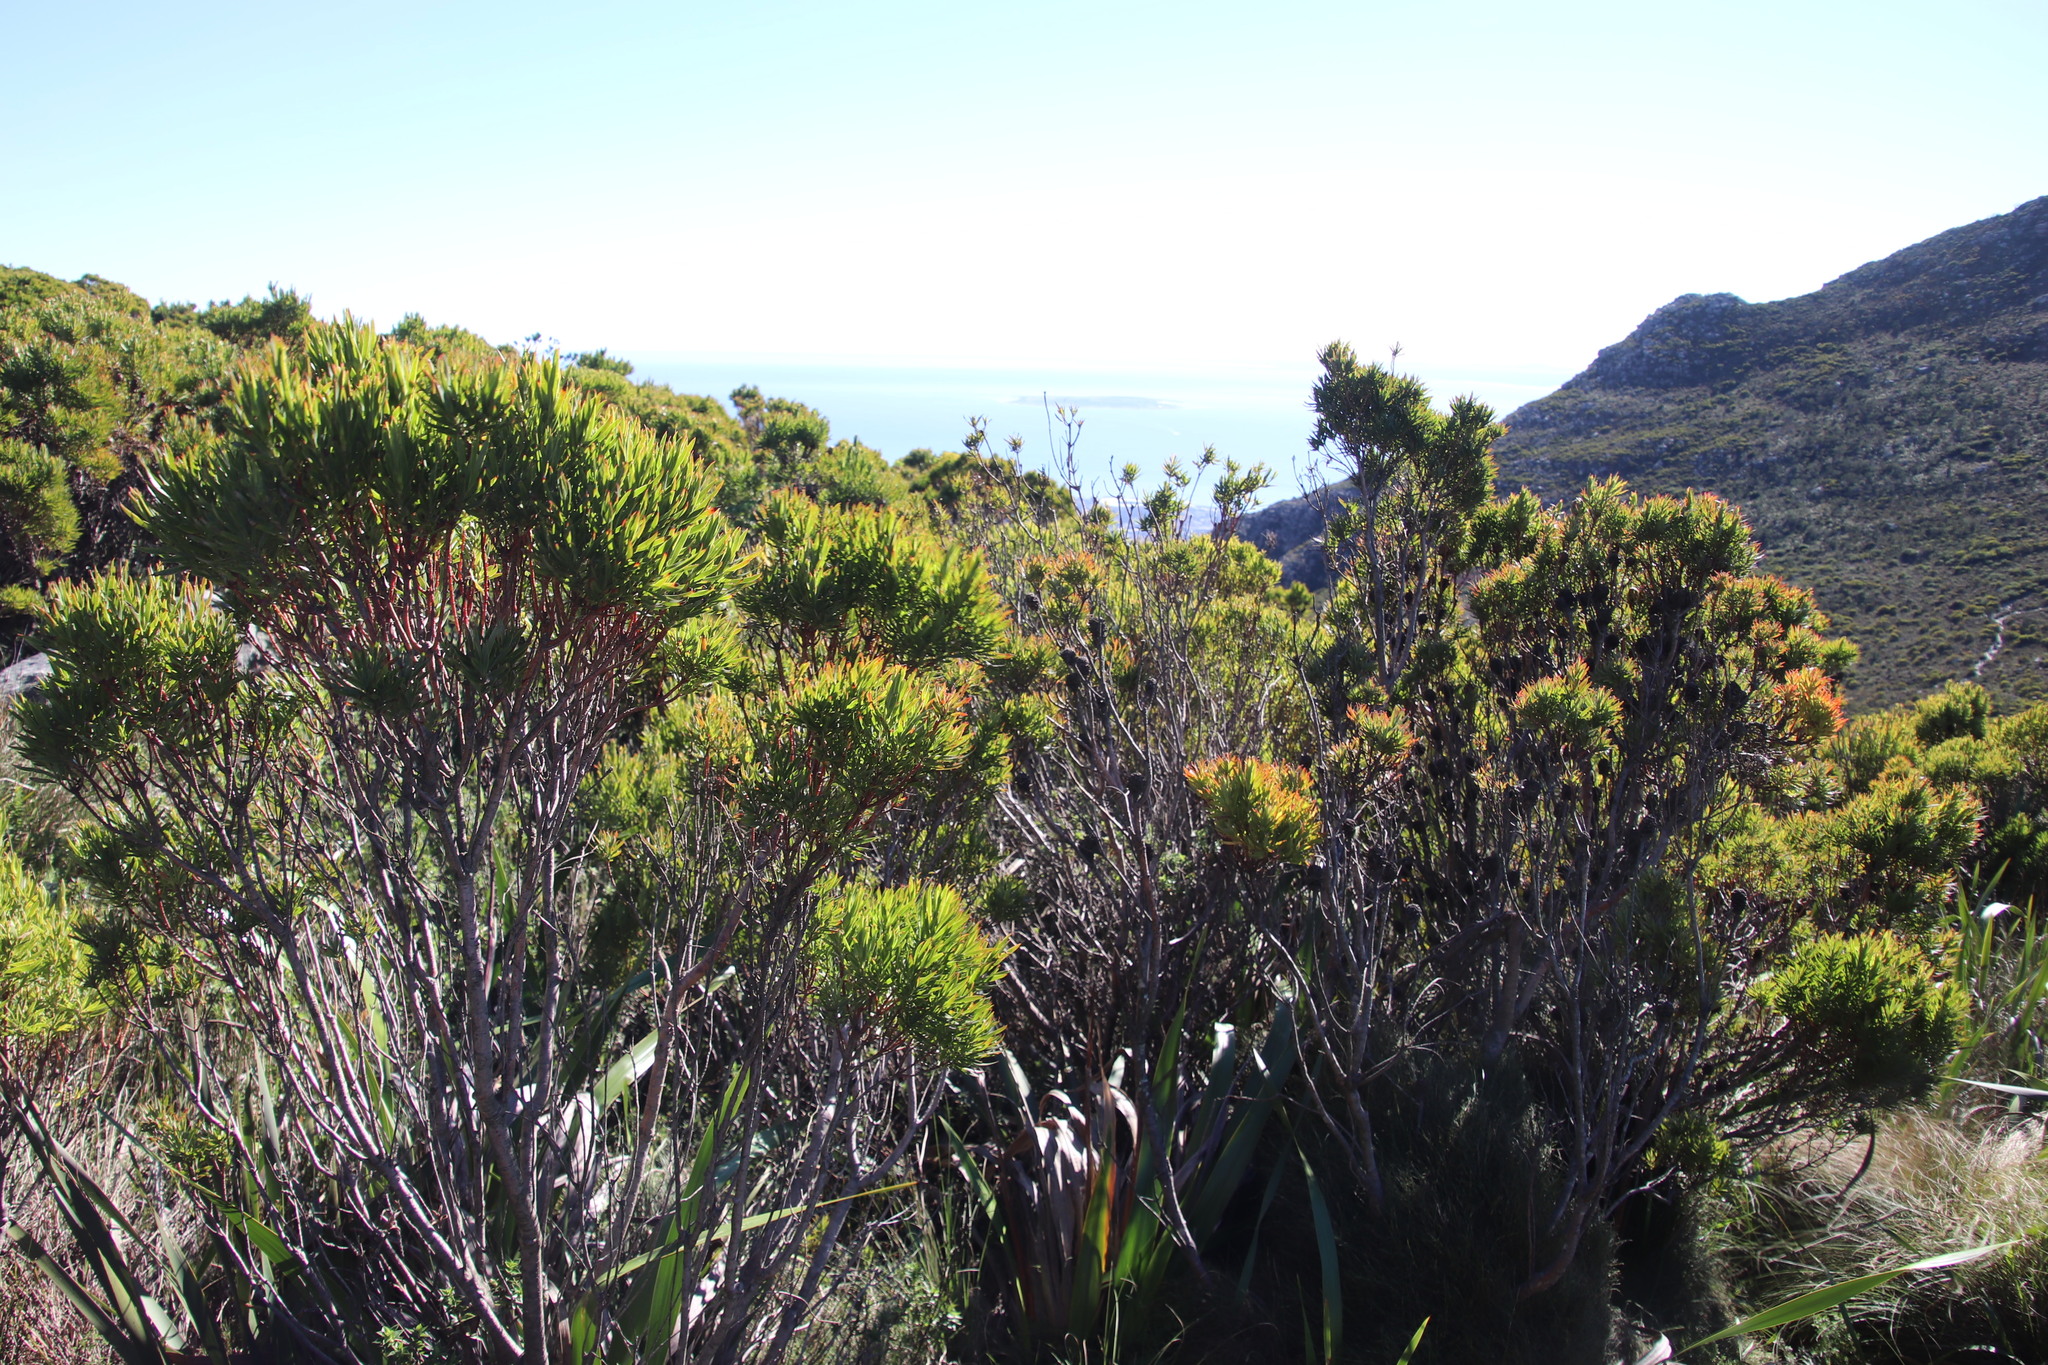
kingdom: Plantae
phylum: Tracheophyta
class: Magnoliopsida
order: Proteales
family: Proteaceae
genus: Leucadendron
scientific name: Leucadendron xanthoconus
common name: Sickle-leaf conebush
